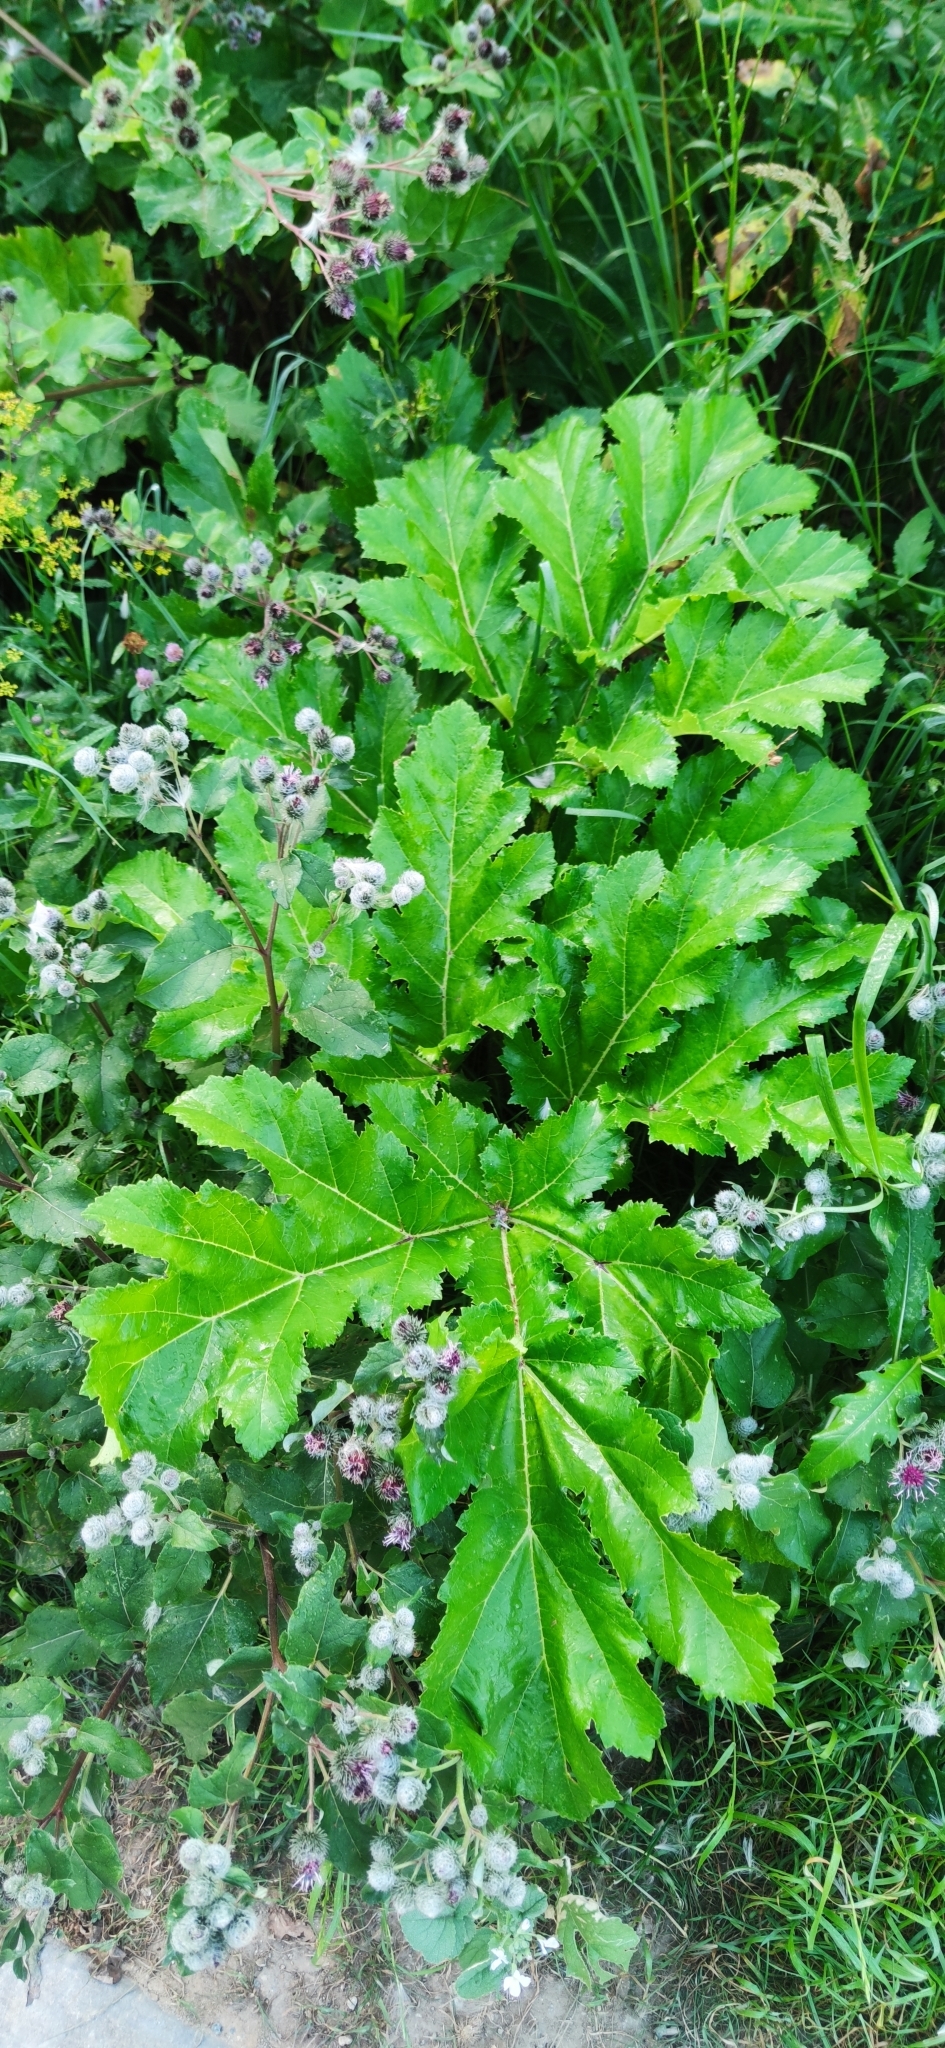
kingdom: Plantae
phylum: Tracheophyta
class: Magnoliopsida
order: Apiales
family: Apiaceae
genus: Heracleum
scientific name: Heracleum sosnowskyi
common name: Sosnowsky's hogweed
